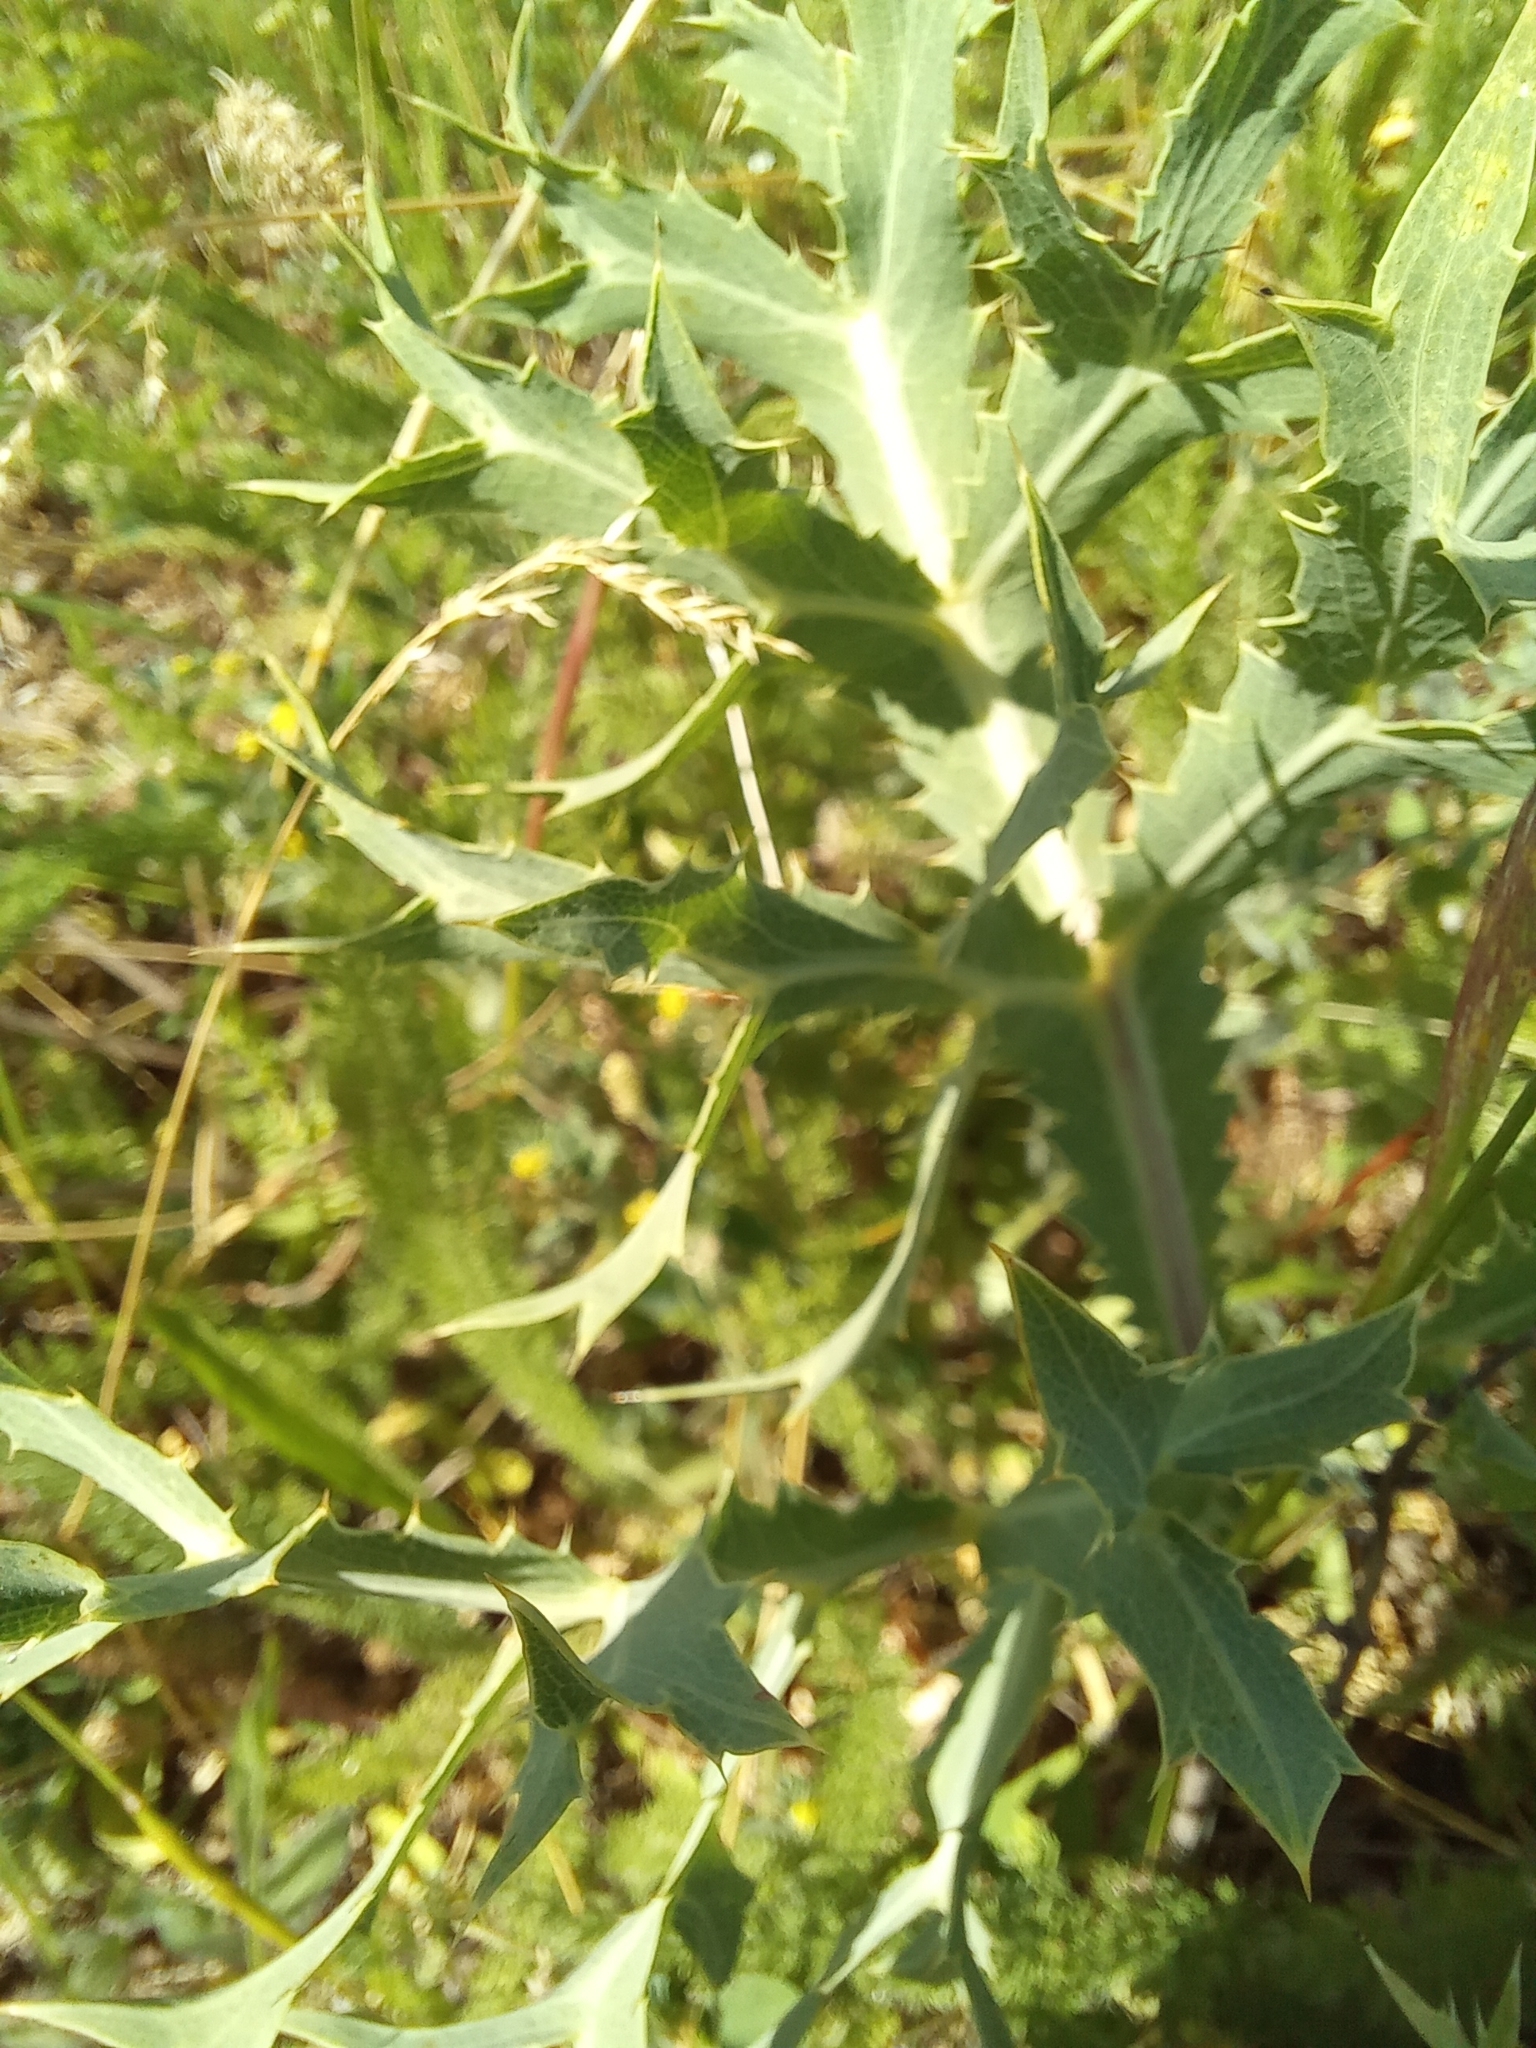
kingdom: Plantae
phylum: Tracheophyta
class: Magnoliopsida
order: Apiales
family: Apiaceae
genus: Eryngium
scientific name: Eryngium campestre
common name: Field eryngo
